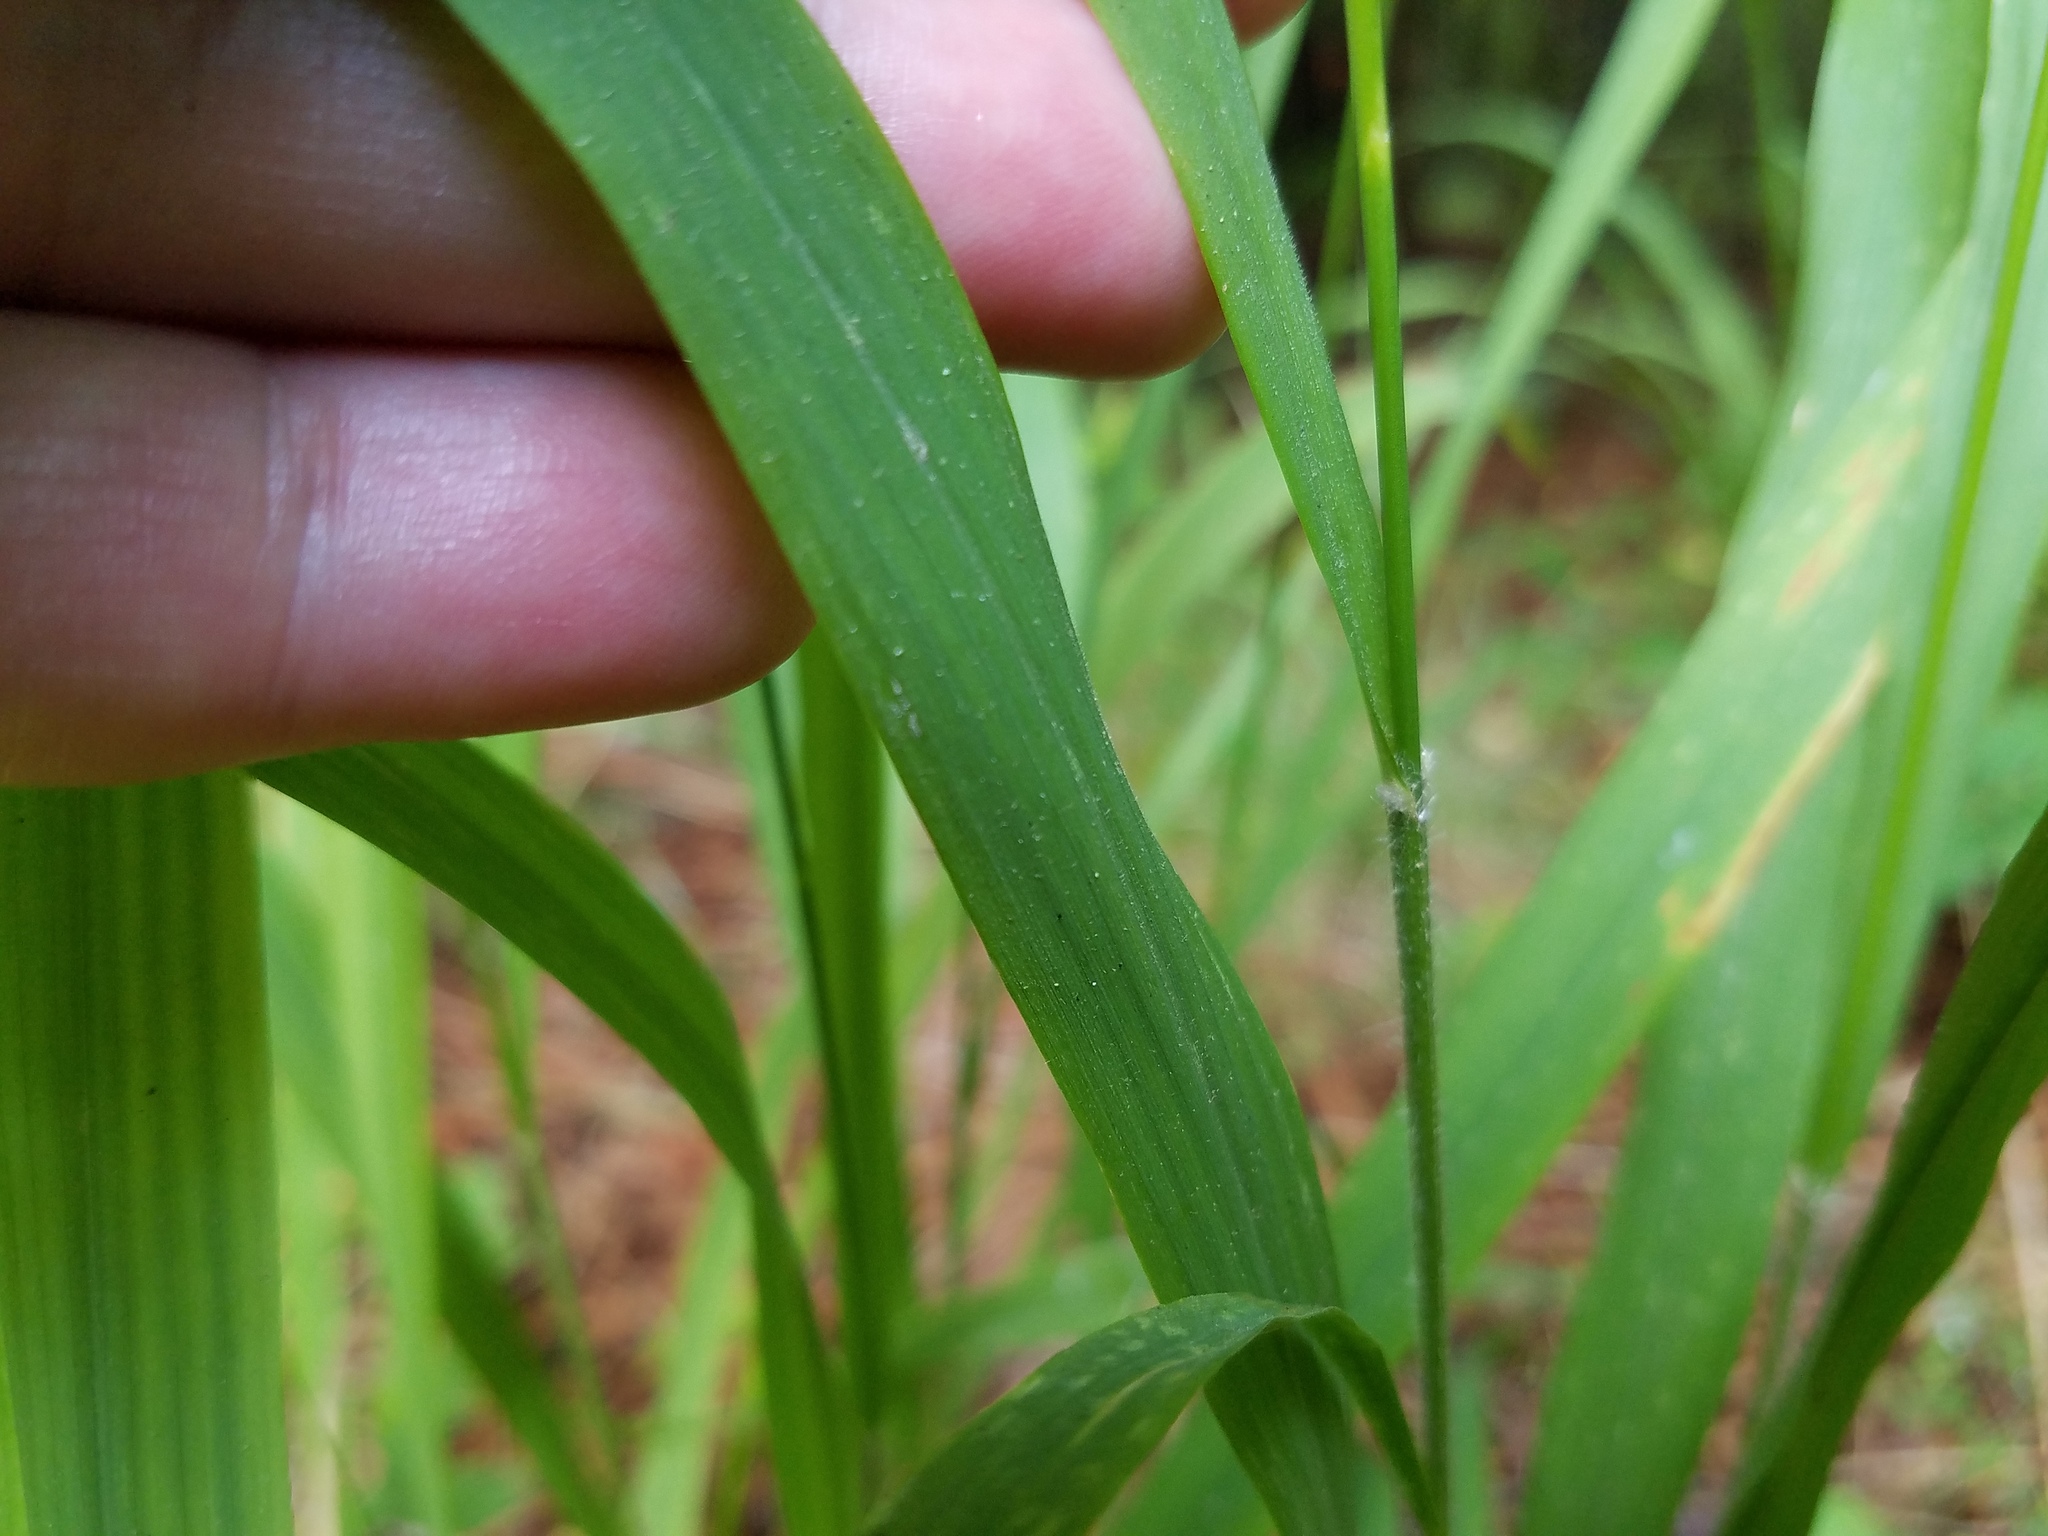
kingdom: Plantae
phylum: Tracheophyta
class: Liliopsida
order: Poales
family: Poaceae
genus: Chasmanthium
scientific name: Chasmanthium laxum
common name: Slender chasmanthium
